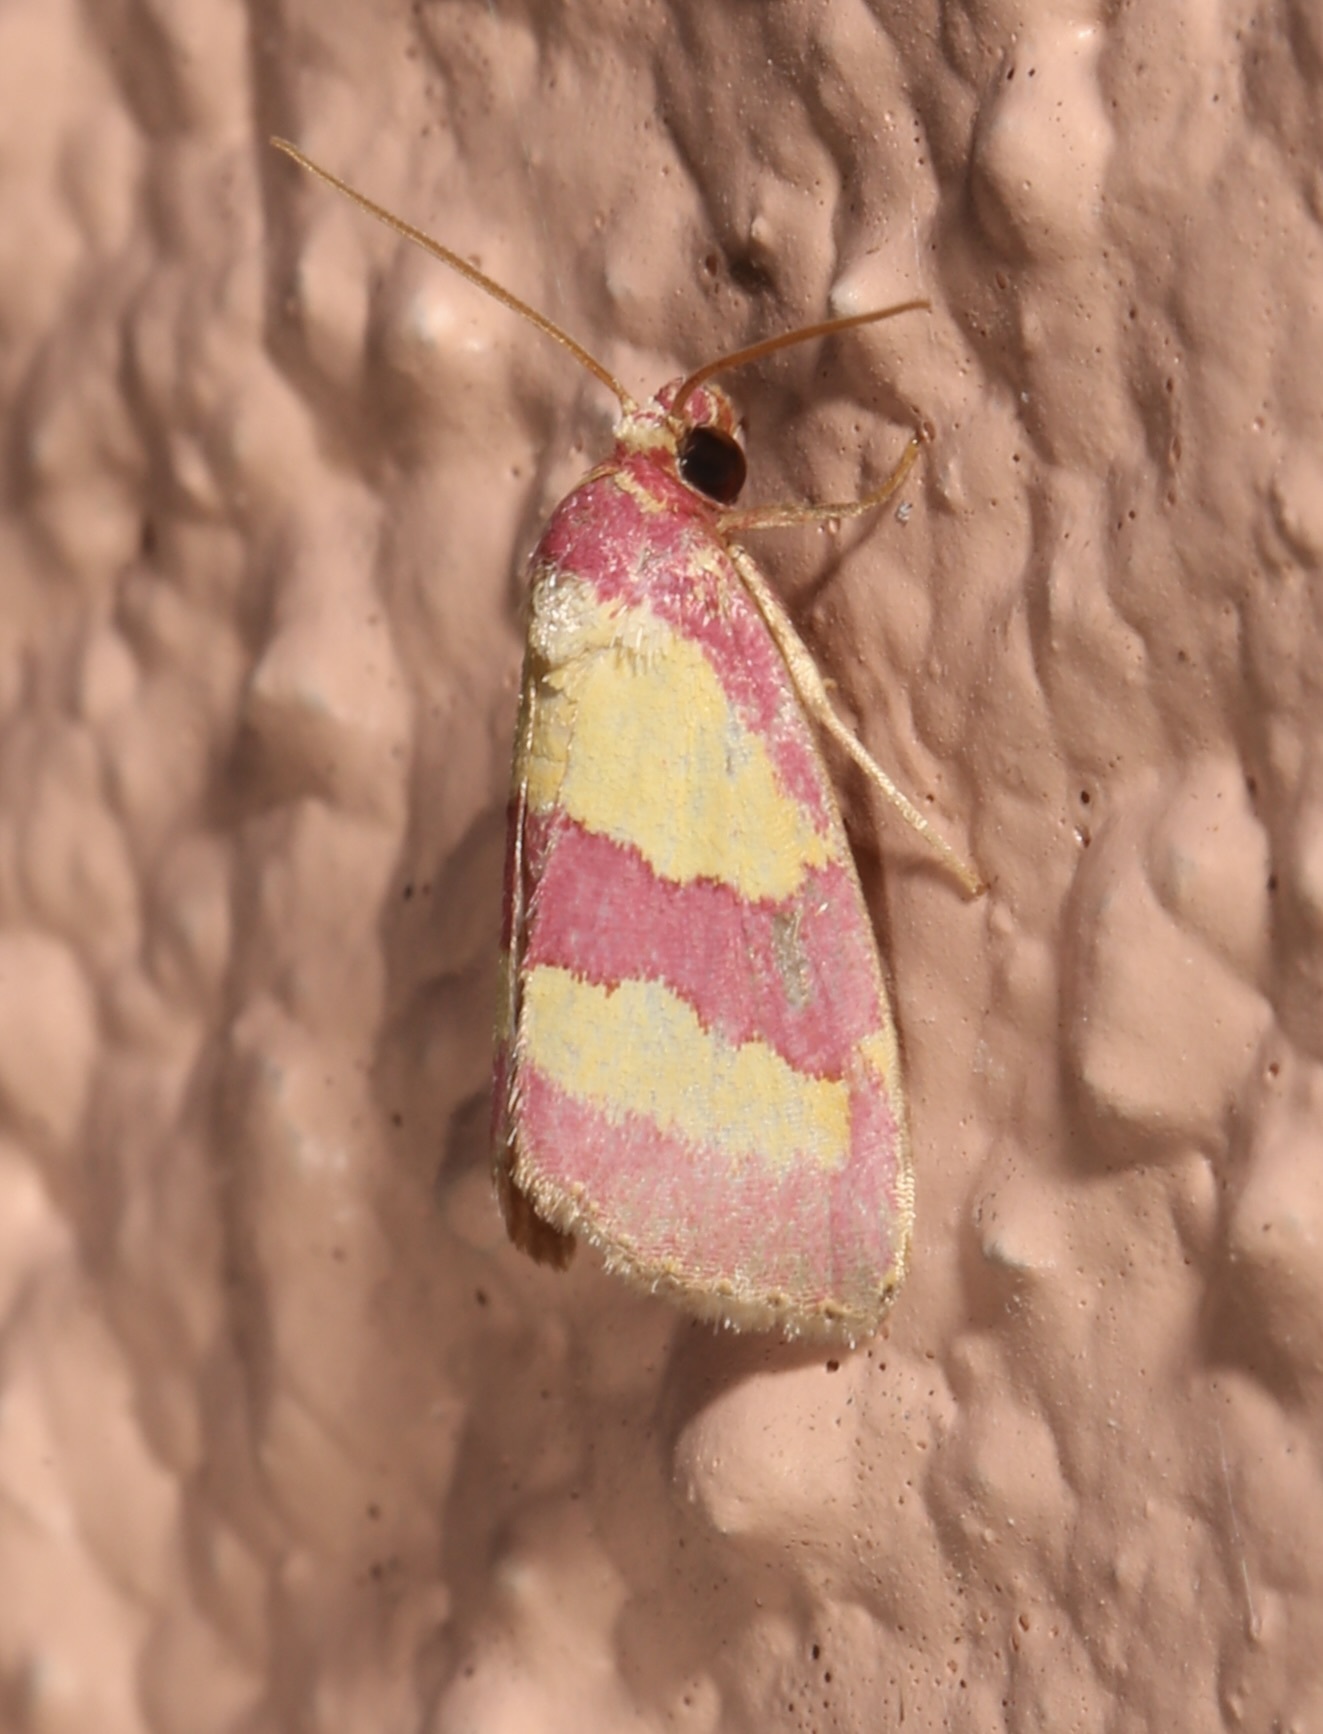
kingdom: Animalia
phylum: Arthropoda
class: Insecta
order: Lepidoptera
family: Noctuidae
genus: Phoenicophanta
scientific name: Phoenicophanta bicolor
